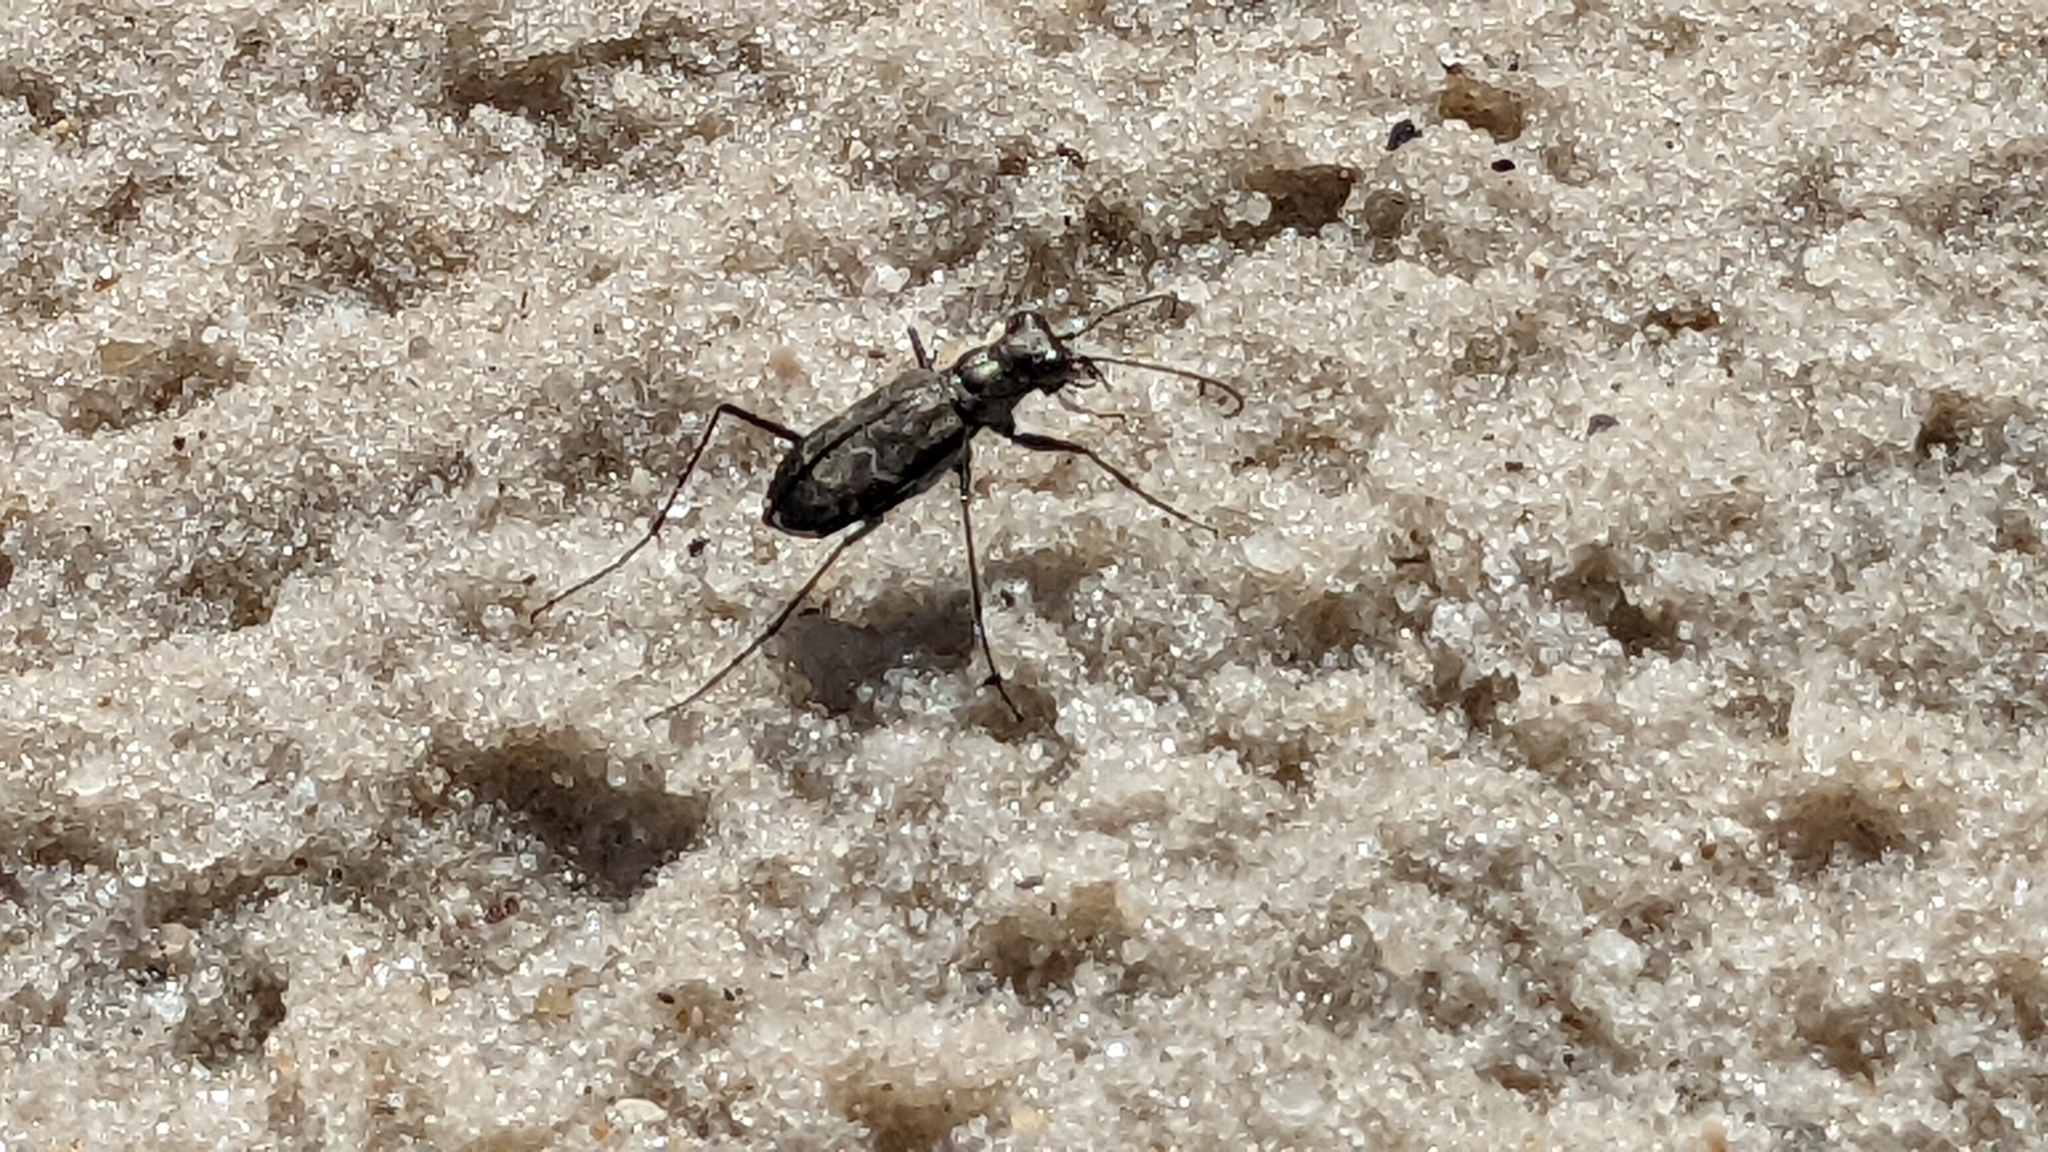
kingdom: Animalia
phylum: Arthropoda
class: Insecta
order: Coleoptera
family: Carabidae
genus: Cicindela
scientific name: Cicindela trifasciata
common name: Mudflat tiger beetle
